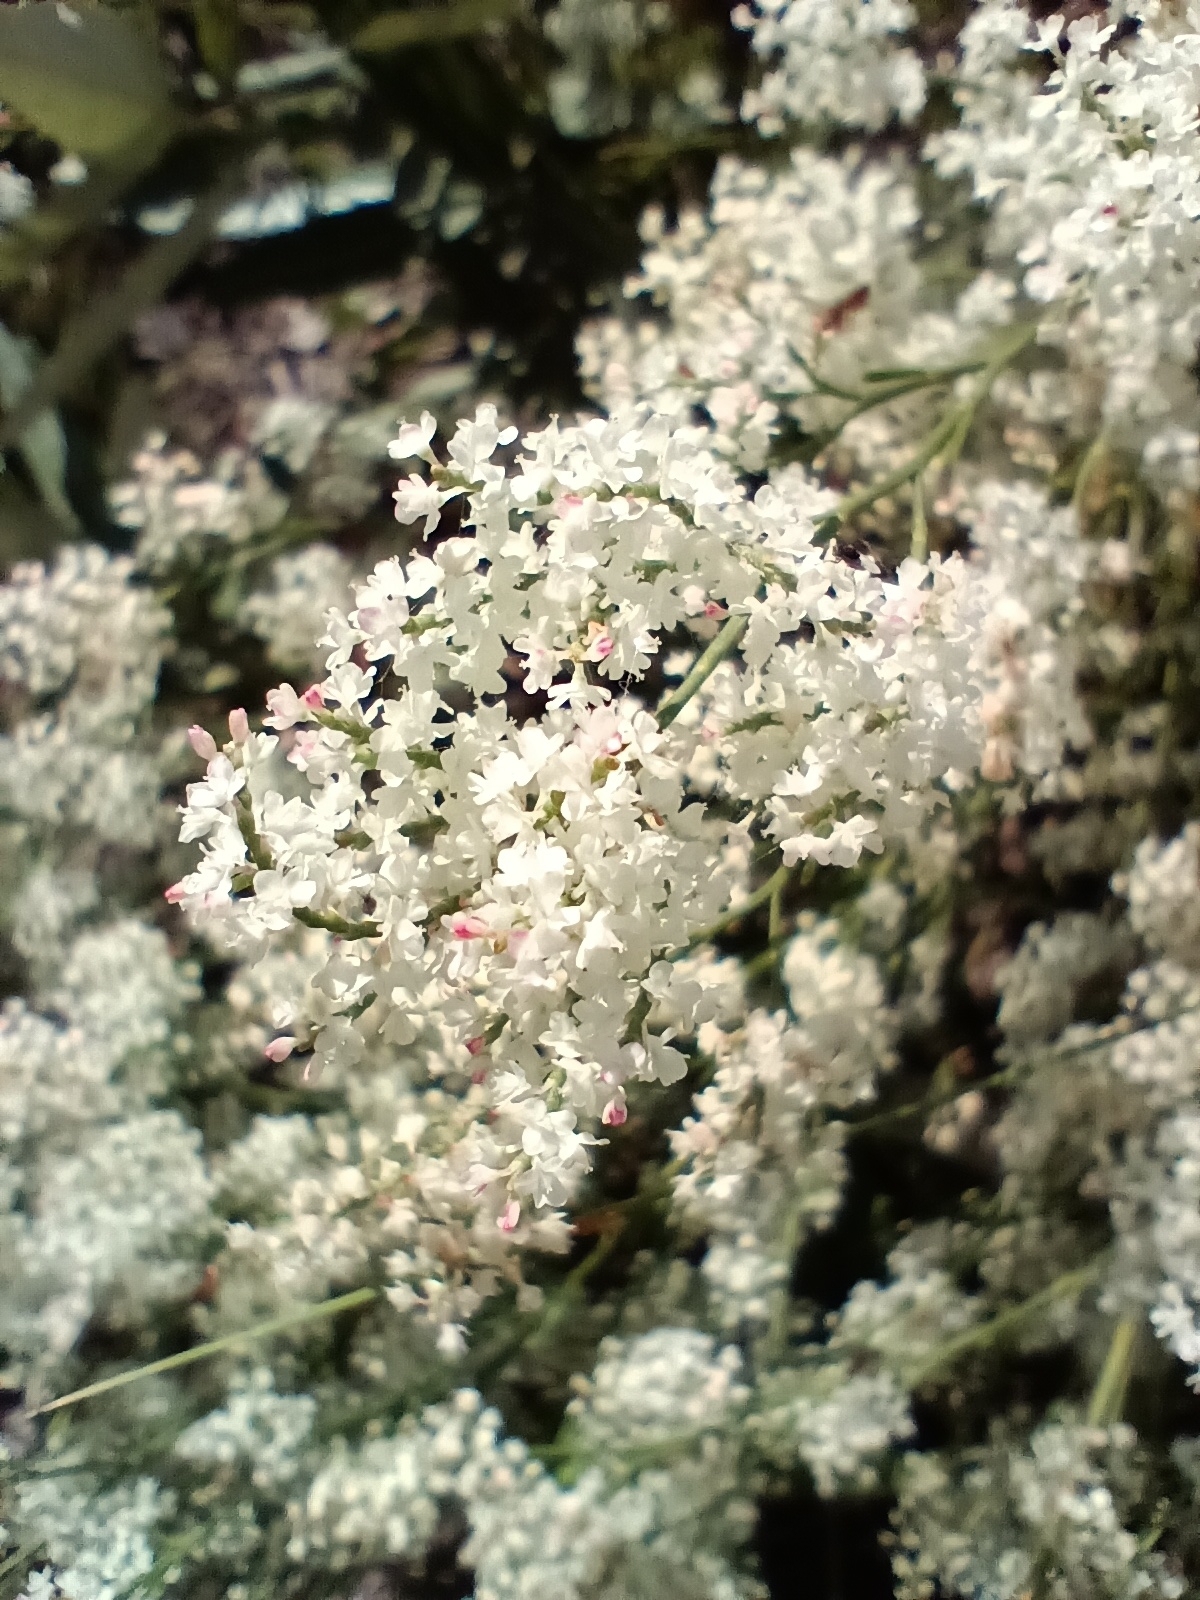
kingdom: Plantae
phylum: Tracheophyta
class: Magnoliopsida
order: Caryophyllales
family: Polygonaceae
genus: Polygonella
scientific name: Polygonella polygama
